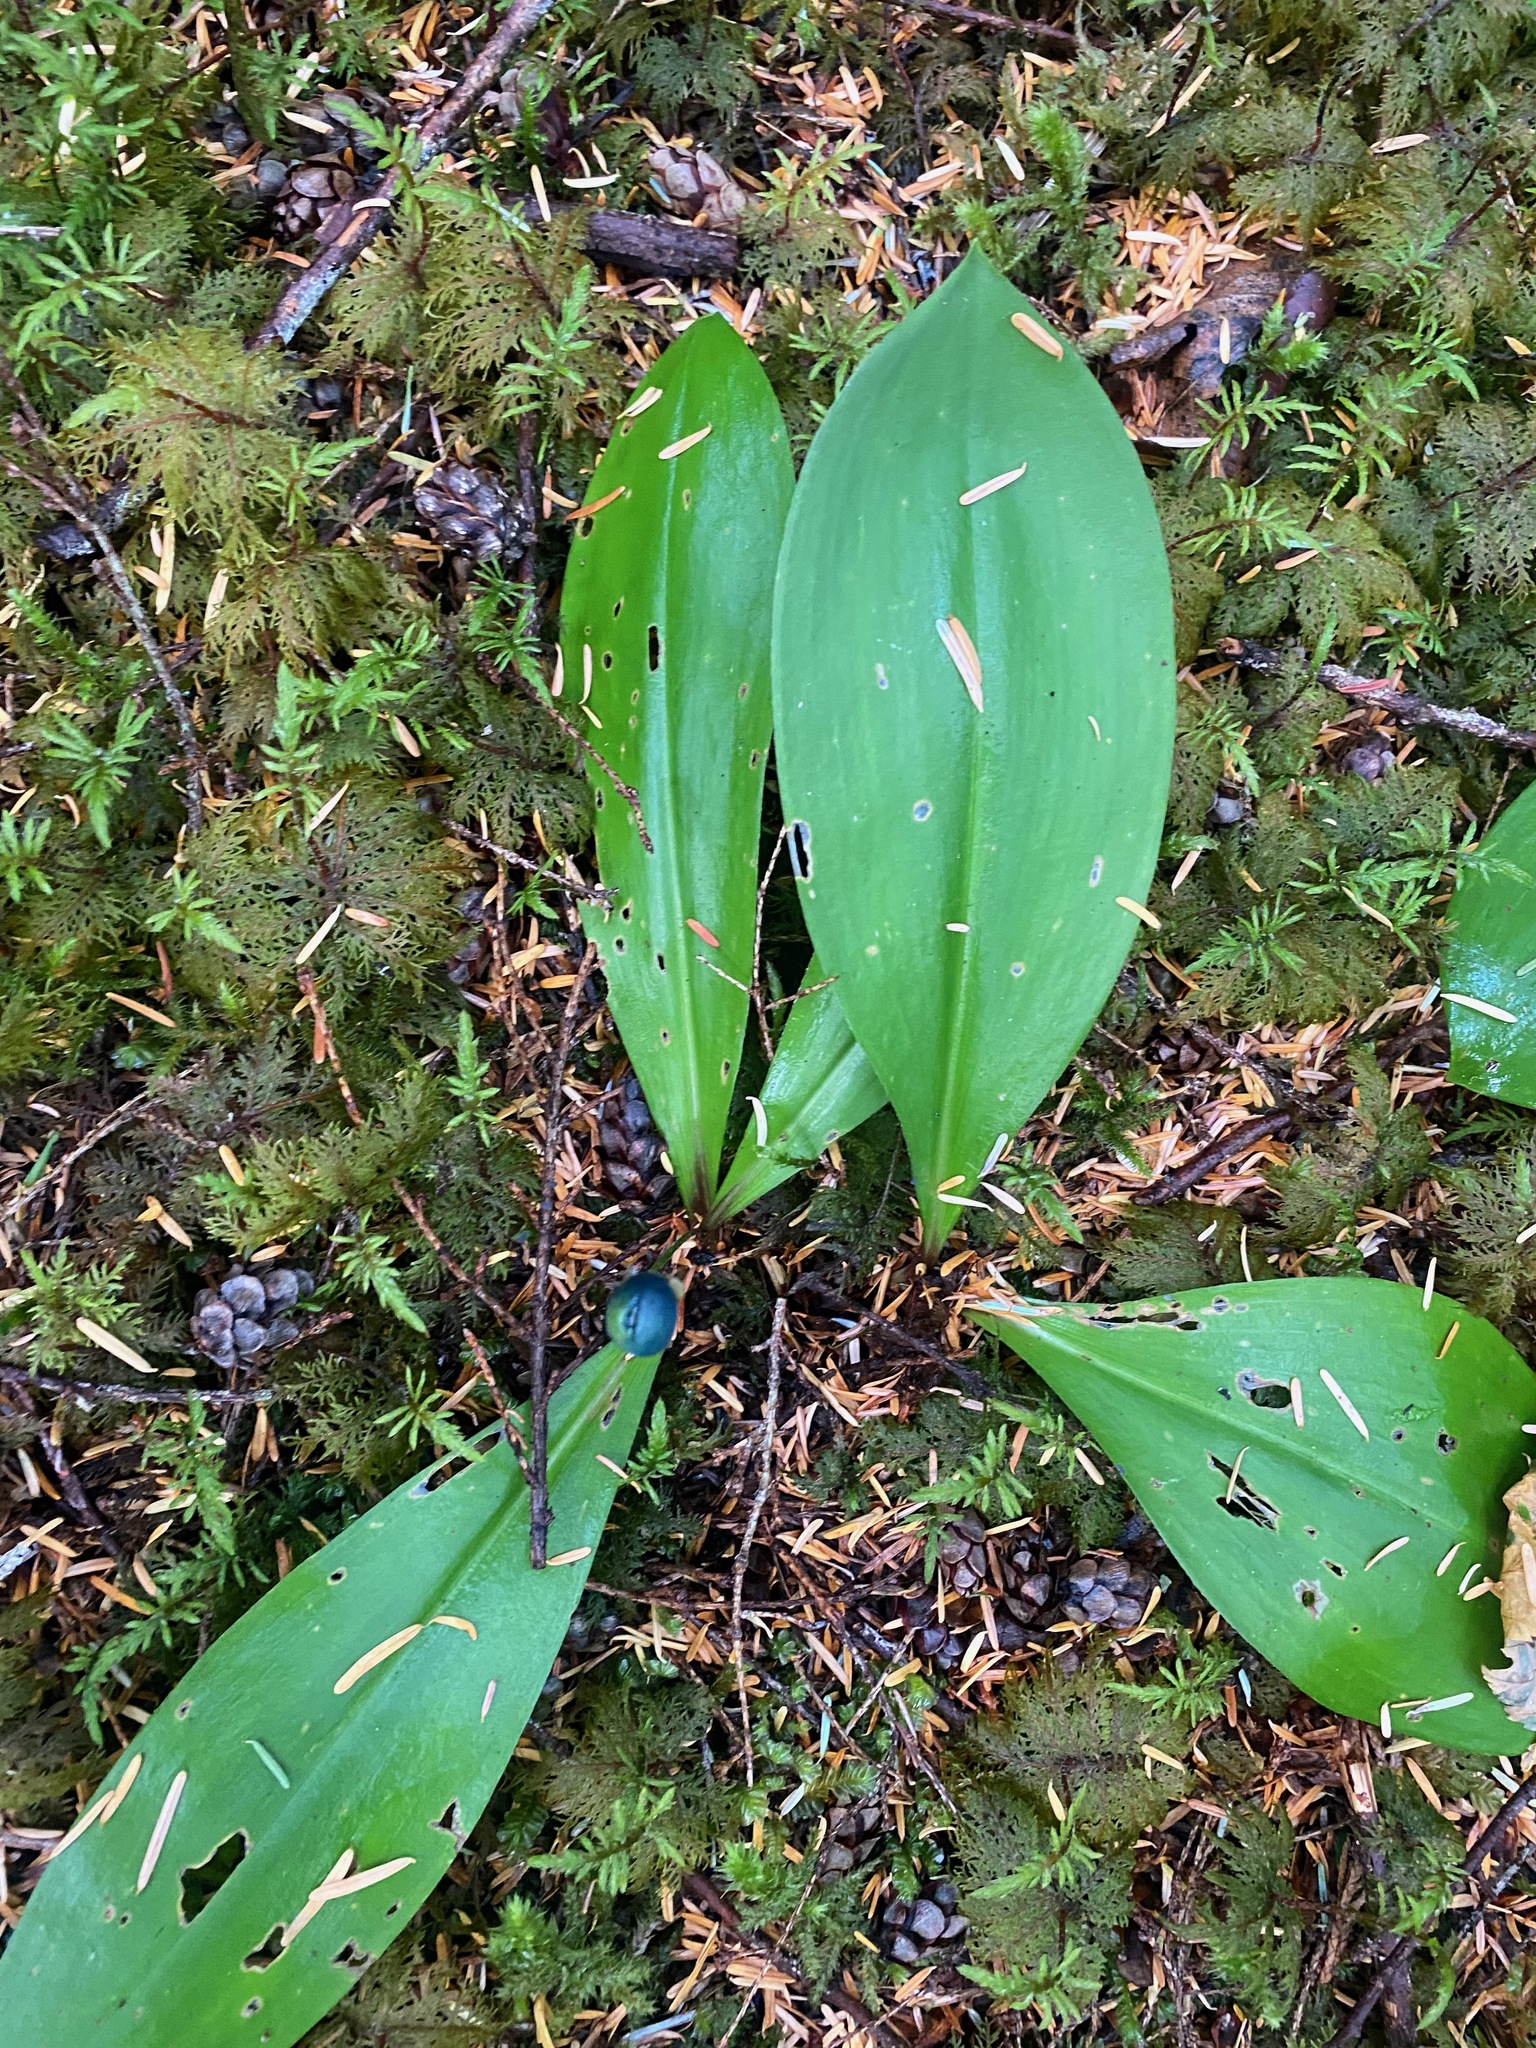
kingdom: Plantae
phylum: Tracheophyta
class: Liliopsida
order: Liliales
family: Liliaceae
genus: Clintonia
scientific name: Clintonia uniflora
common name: Queen's cup
